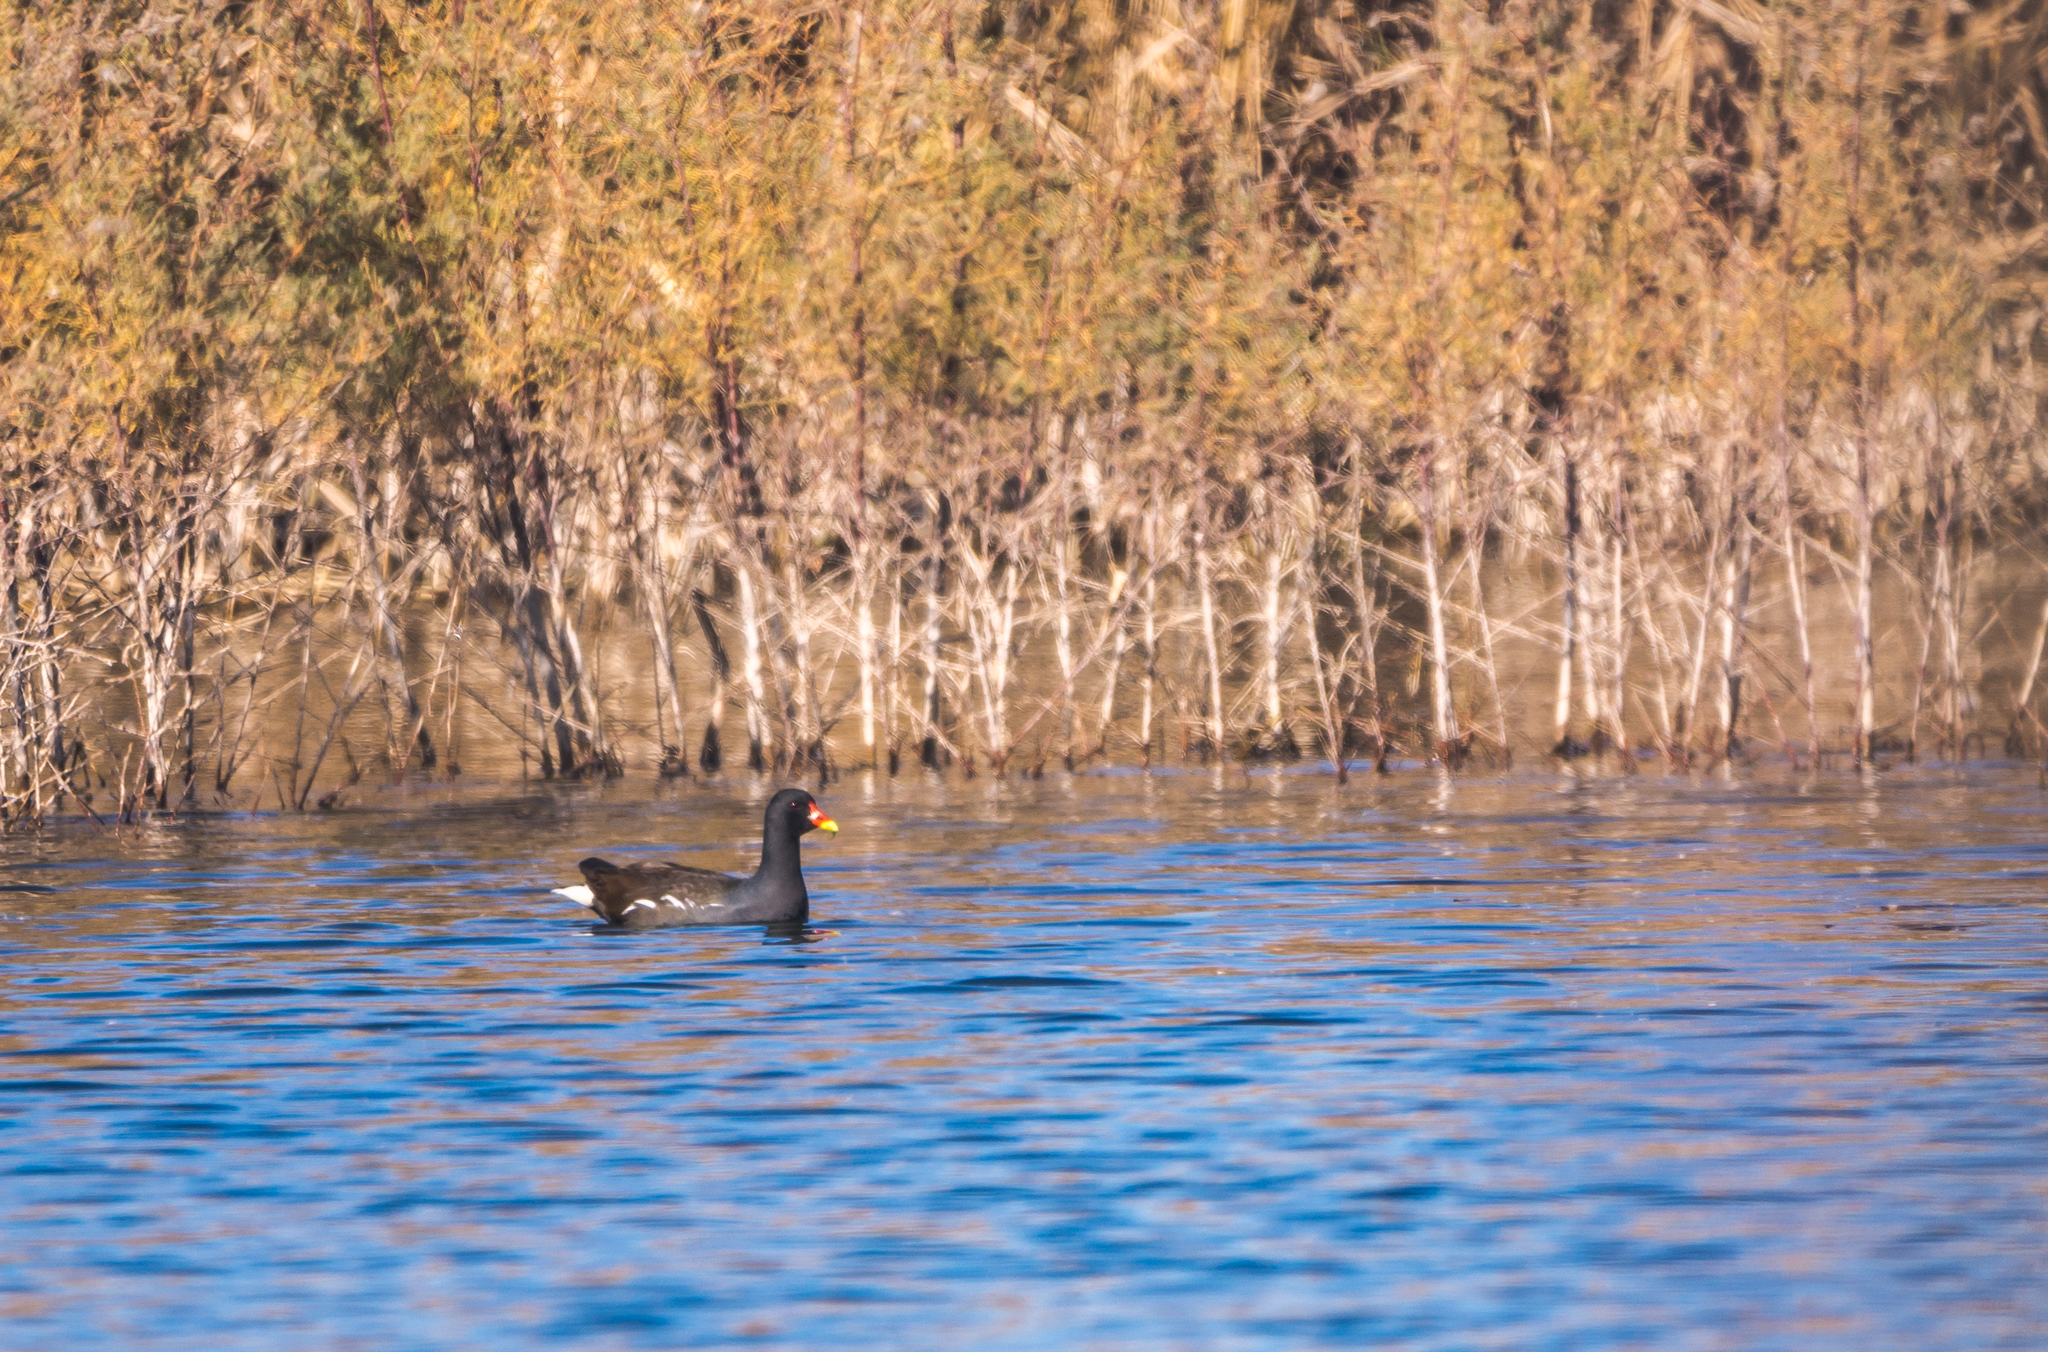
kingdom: Animalia
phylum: Chordata
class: Aves
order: Gruiformes
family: Rallidae
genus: Gallinula
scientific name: Gallinula chloropus
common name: Common moorhen
